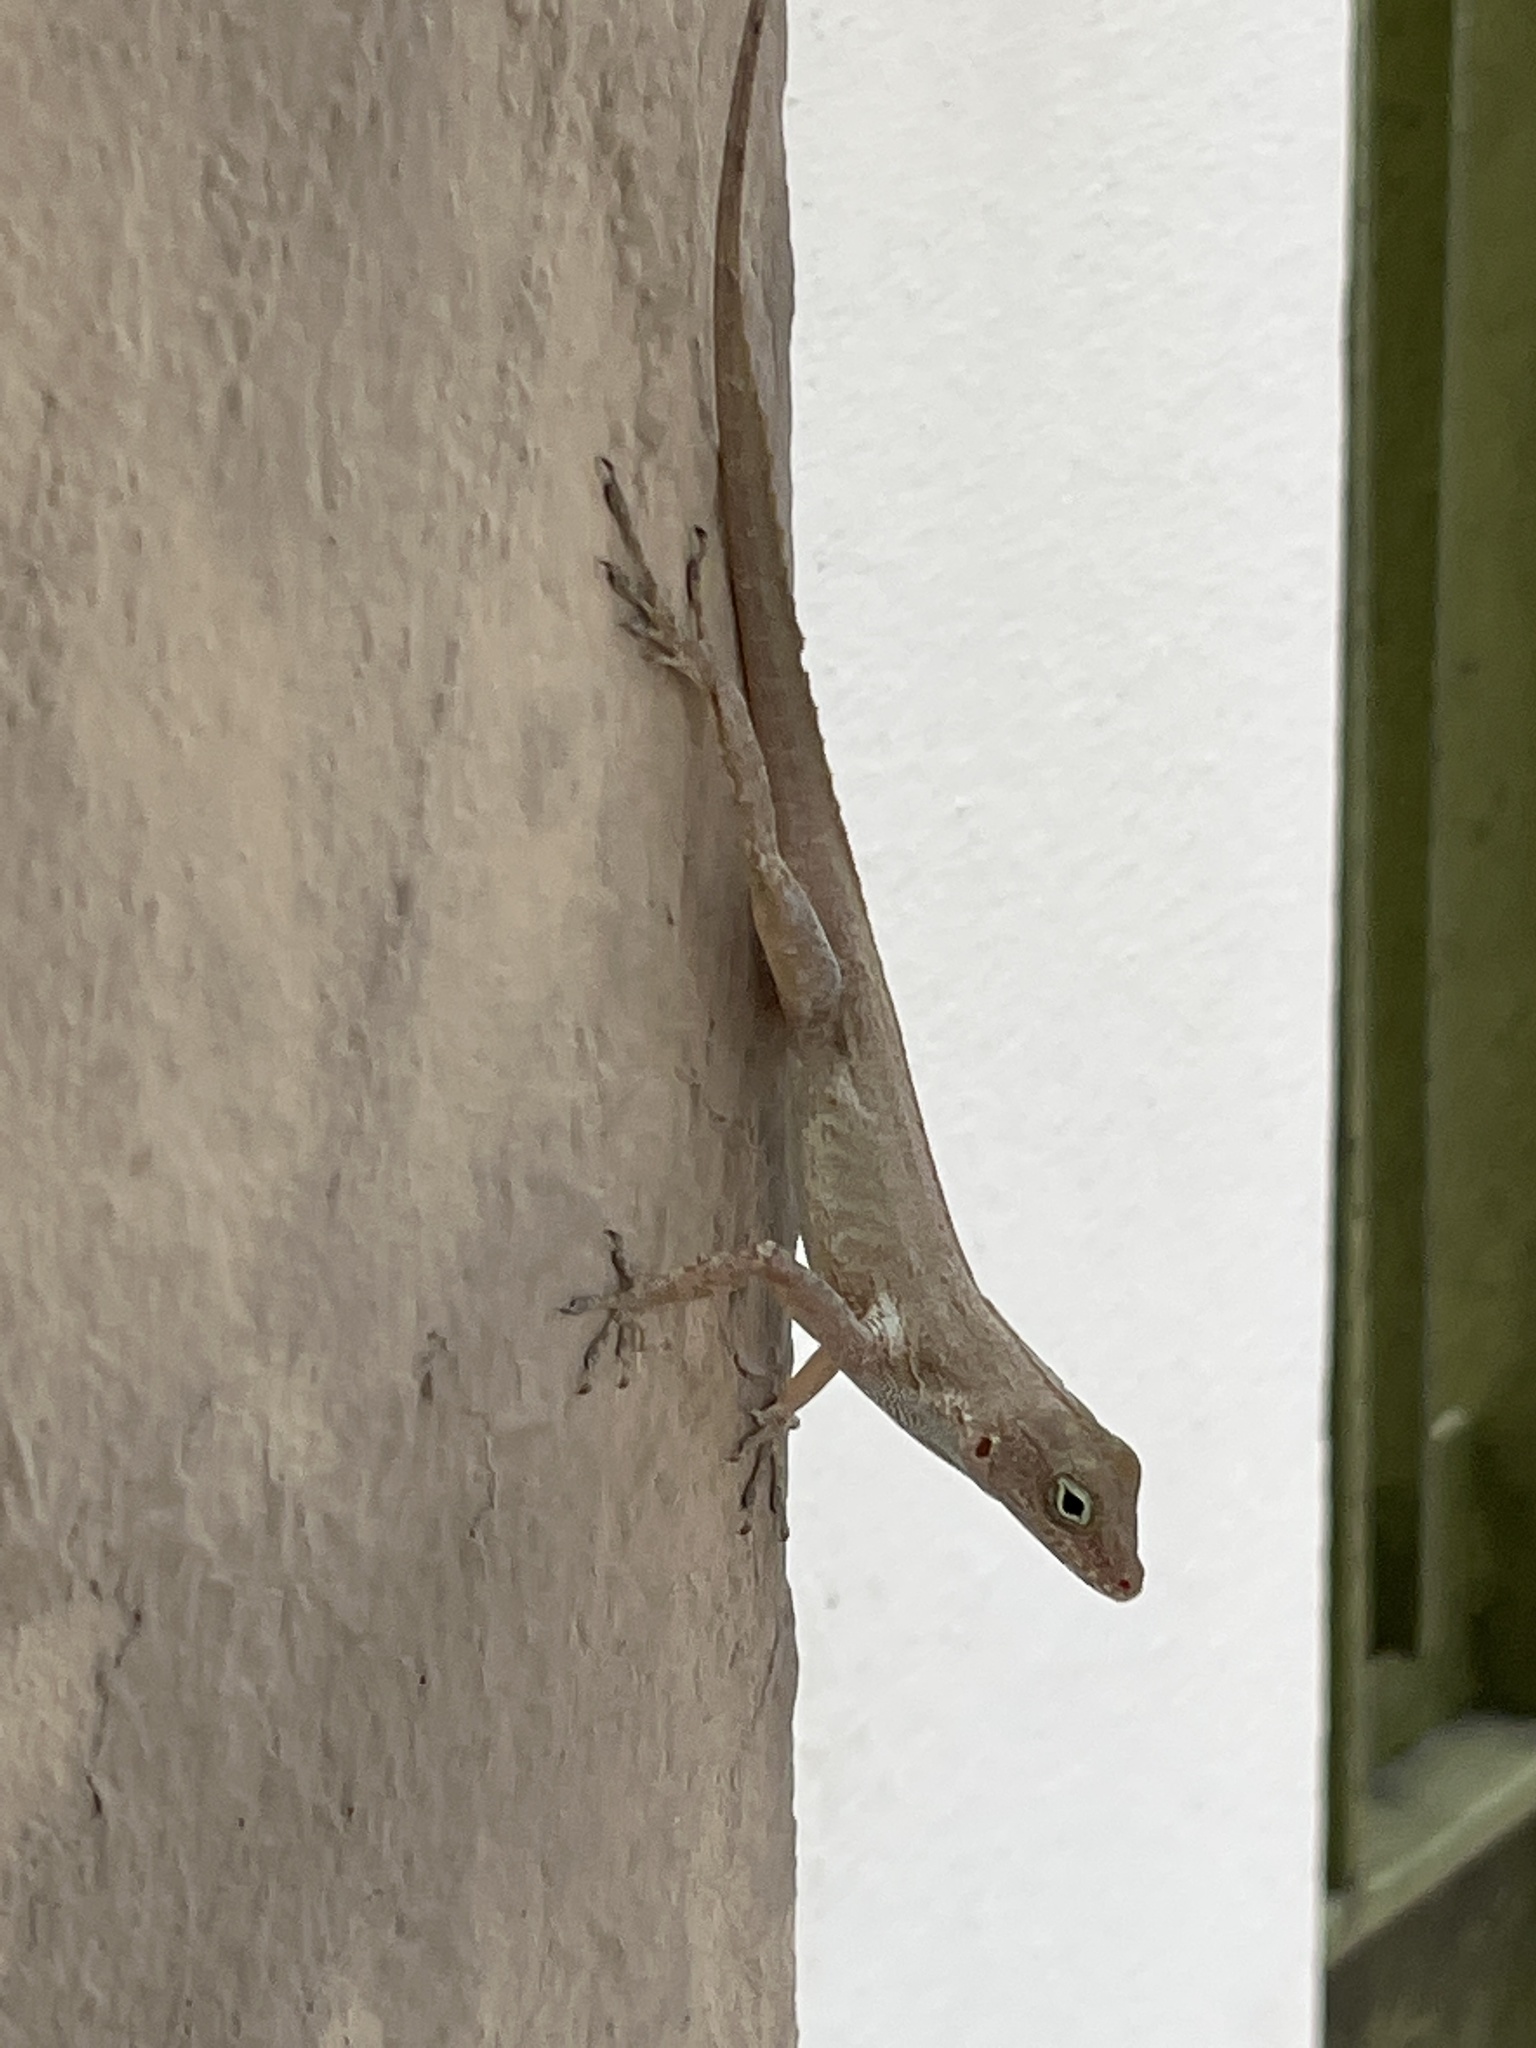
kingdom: Animalia
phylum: Chordata
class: Squamata
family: Dactyloidae
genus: Anolis
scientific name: Anolis cristatellus
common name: Crested anole
